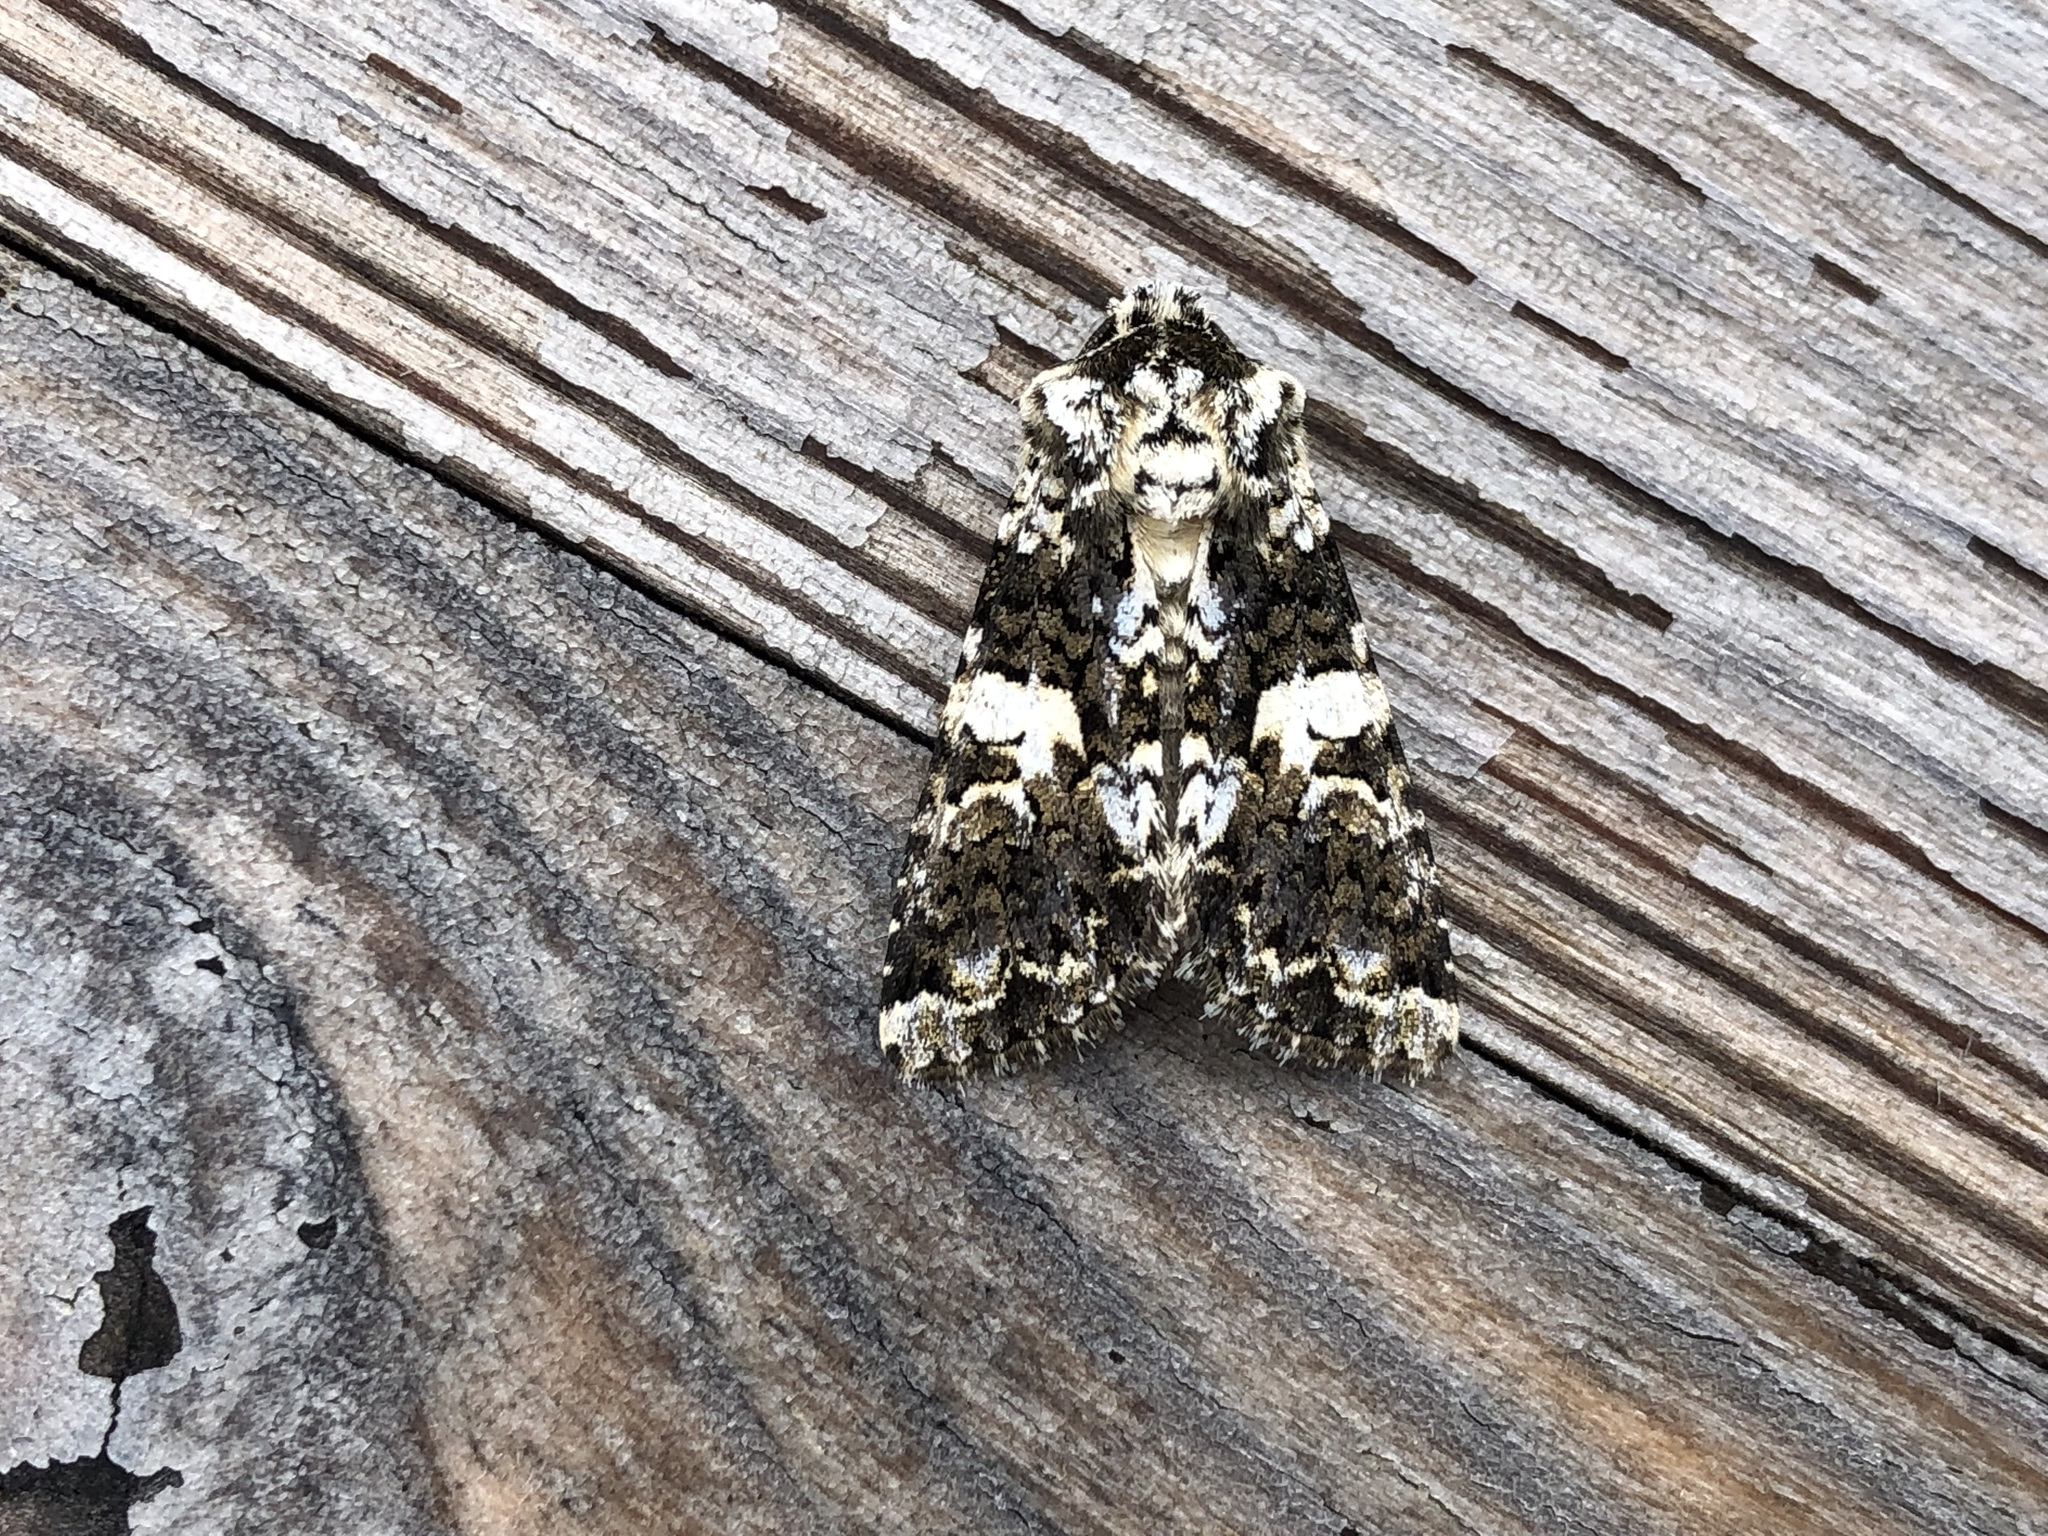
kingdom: Animalia
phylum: Arthropoda
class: Insecta
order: Lepidoptera
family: Noctuidae
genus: Hadena
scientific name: Hadena confusa
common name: Marbled coronet
